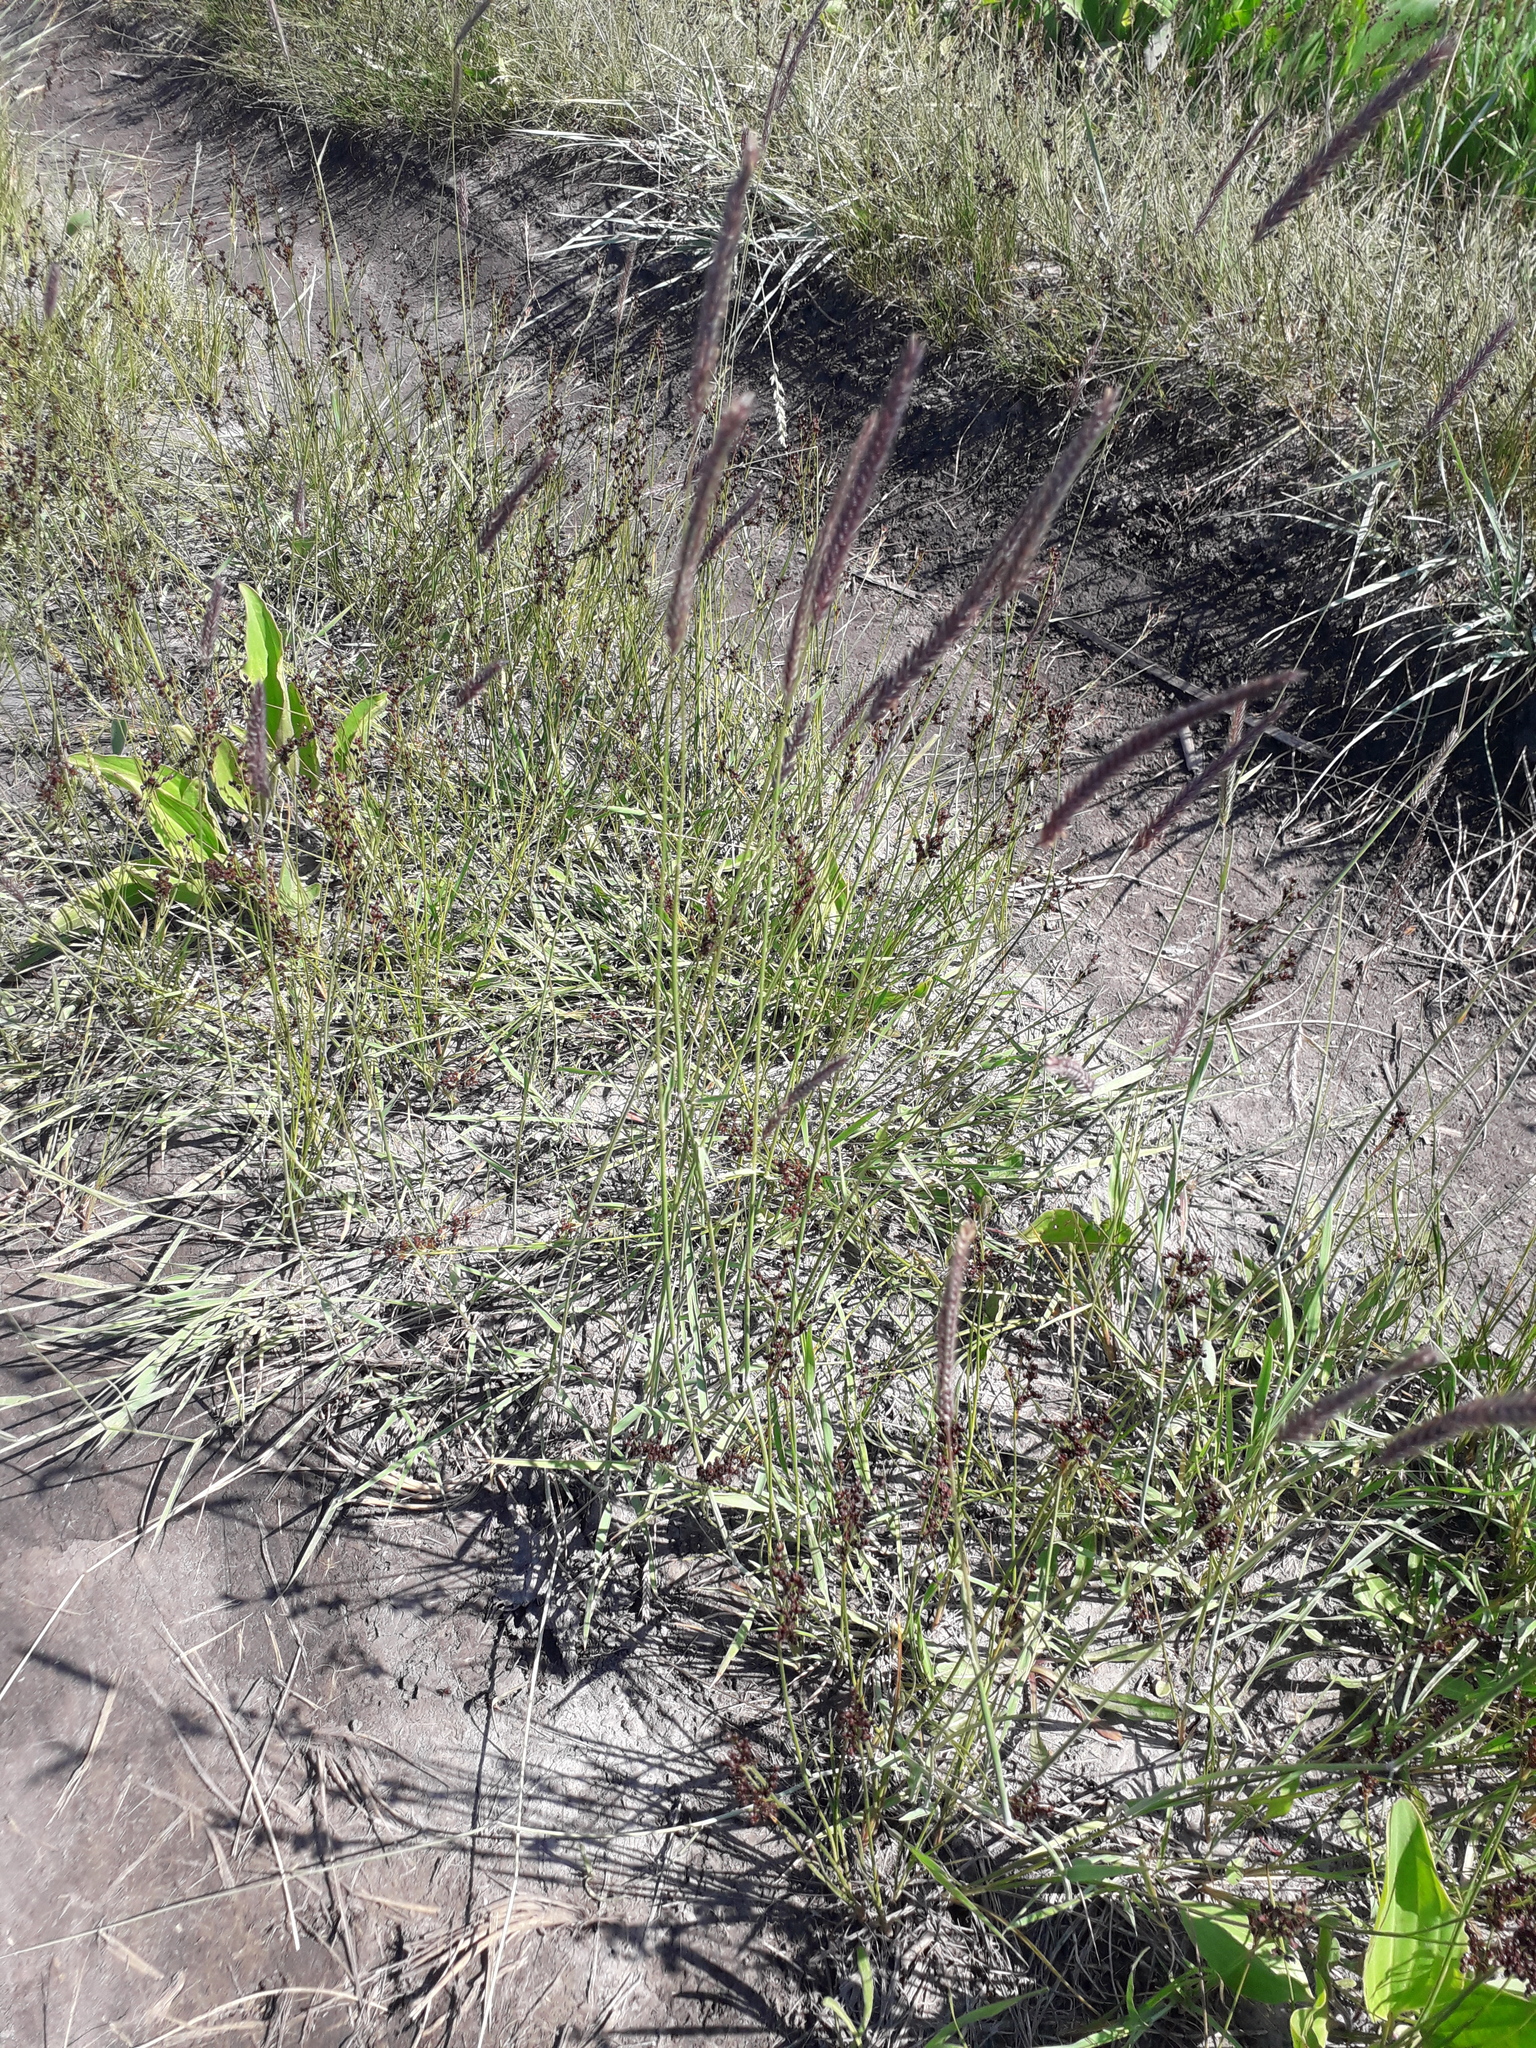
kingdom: Plantae
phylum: Tracheophyta
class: Liliopsida
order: Poales
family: Poaceae
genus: Hordeum
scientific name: Hordeum brevisubulatum
